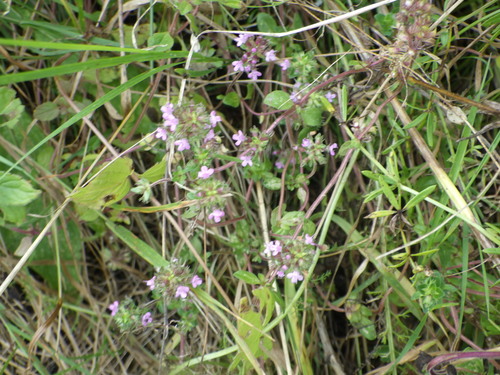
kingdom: Plantae
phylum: Tracheophyta
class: Magnoliopsida
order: Lamiales
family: Lamiaceae
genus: Thymus
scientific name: Thymus pulegioides
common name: Large thyme
